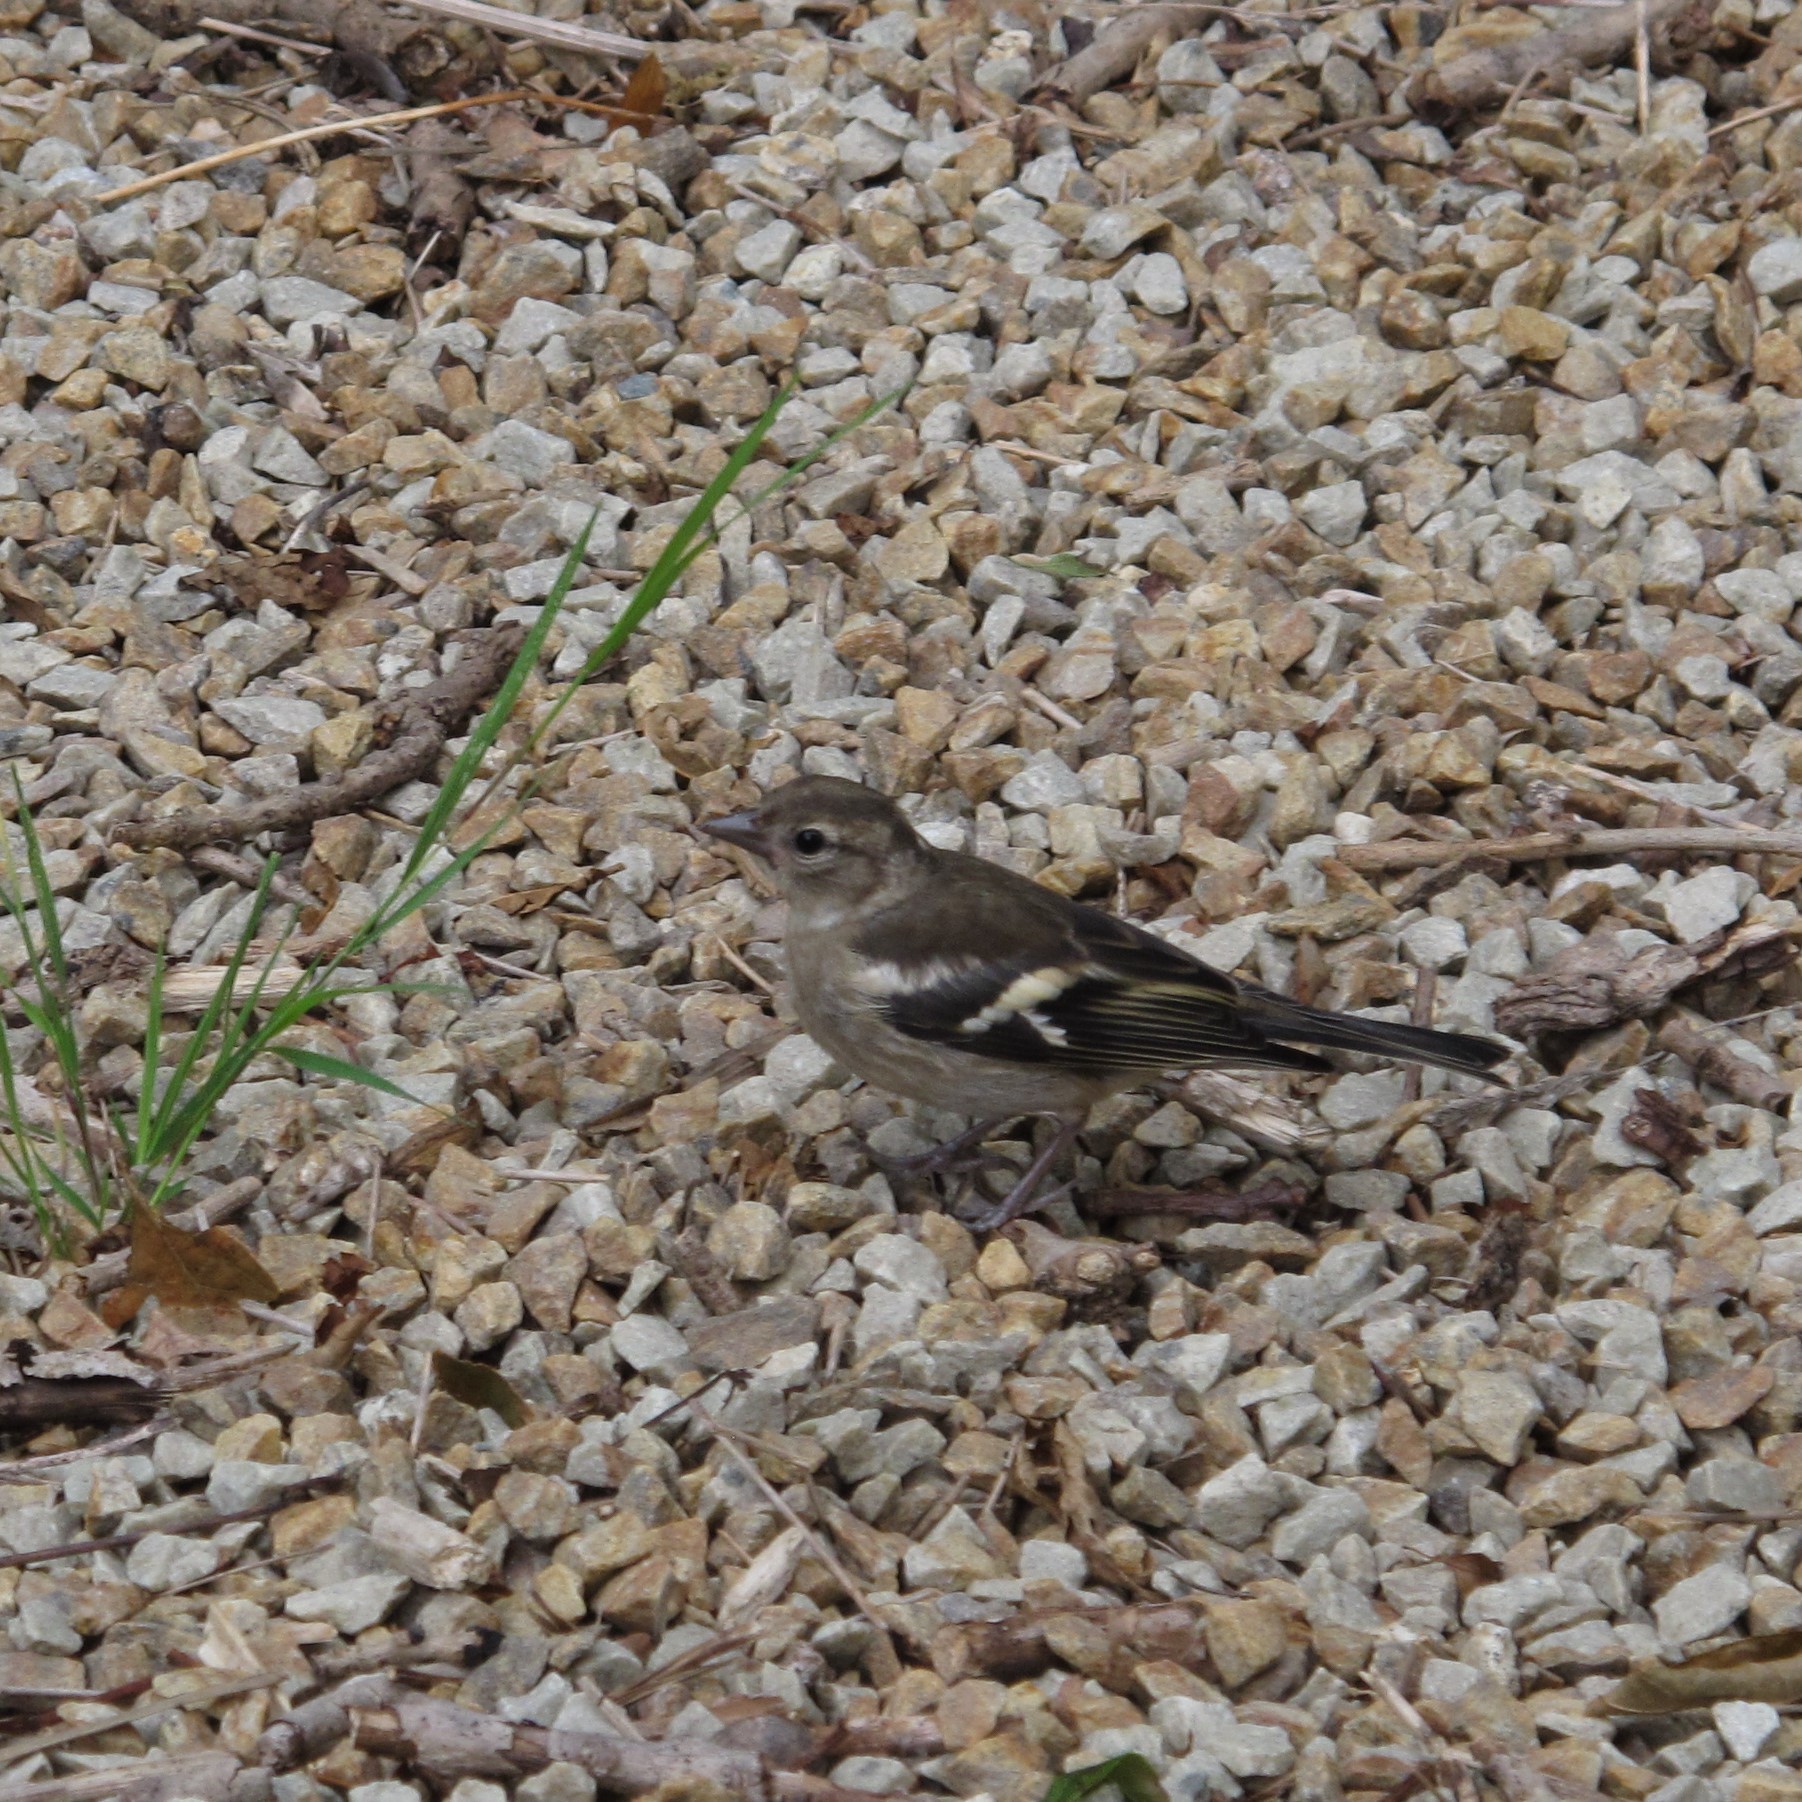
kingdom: Animalia
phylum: Chordata
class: Aves
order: Passeriformes
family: Fringillidae
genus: Fringilla
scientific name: Fringilla coelebs
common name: Common chaffinch
